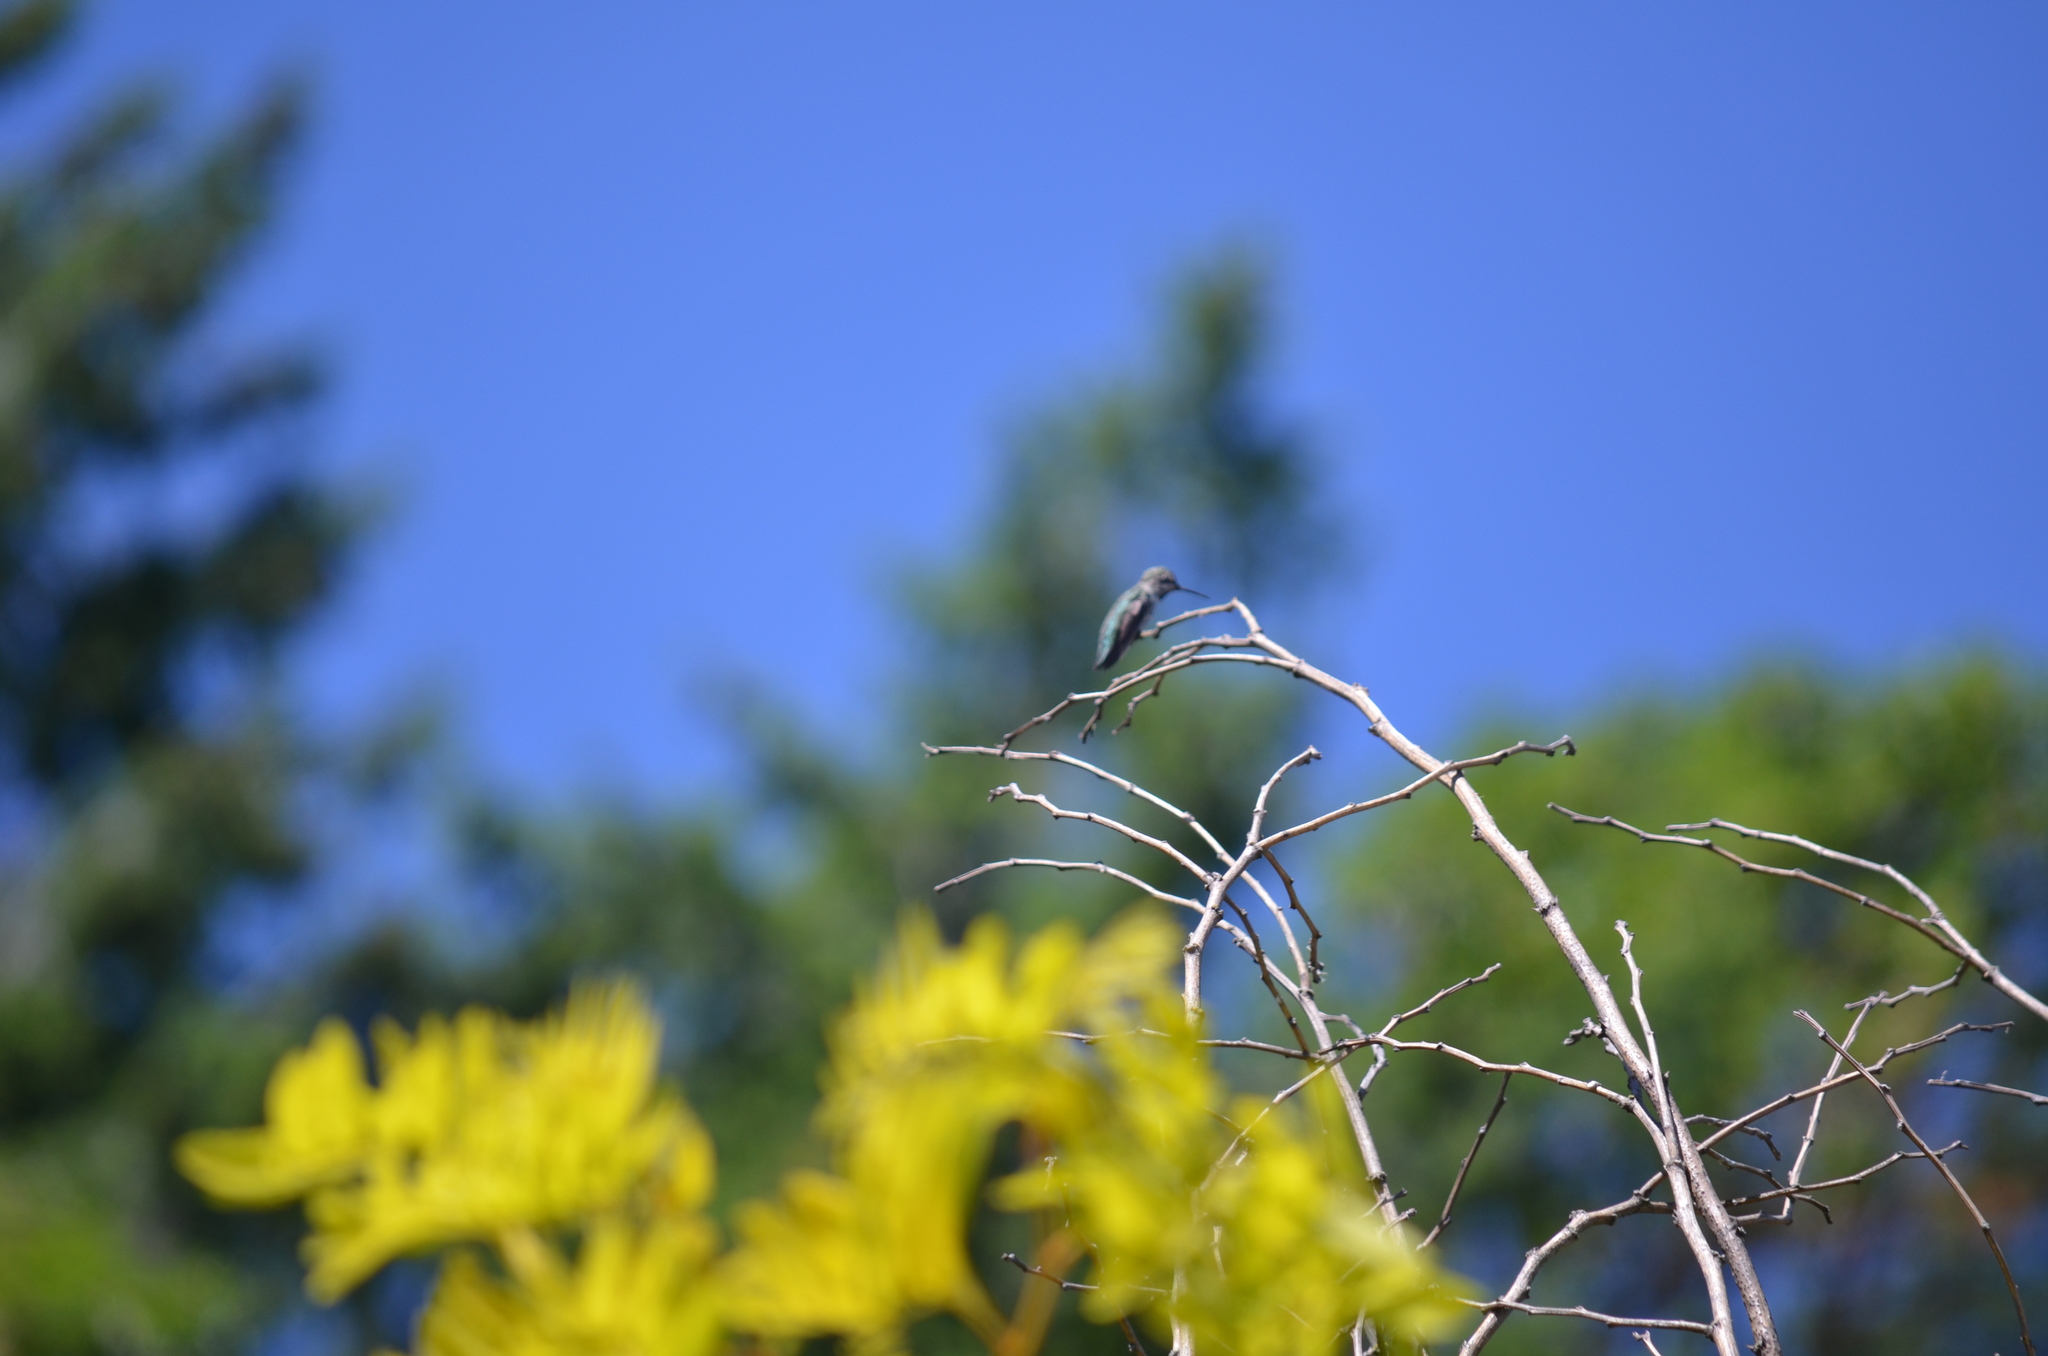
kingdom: Animalia
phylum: Chordata
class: Aves
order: Apodiformes
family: Trochilidae
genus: Calypte
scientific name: Calypte anna
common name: Anna's hummingbird
